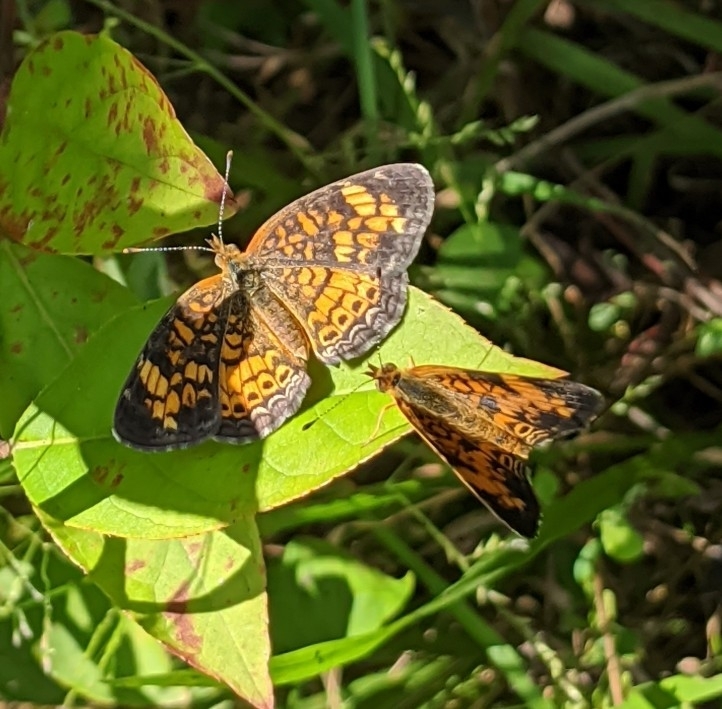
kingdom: Animalia
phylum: Arthropoda
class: Insecta
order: Lepidoptera
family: Nymphalidae
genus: Phyciodes
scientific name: Phyciodes tharos
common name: Pearl crescent
